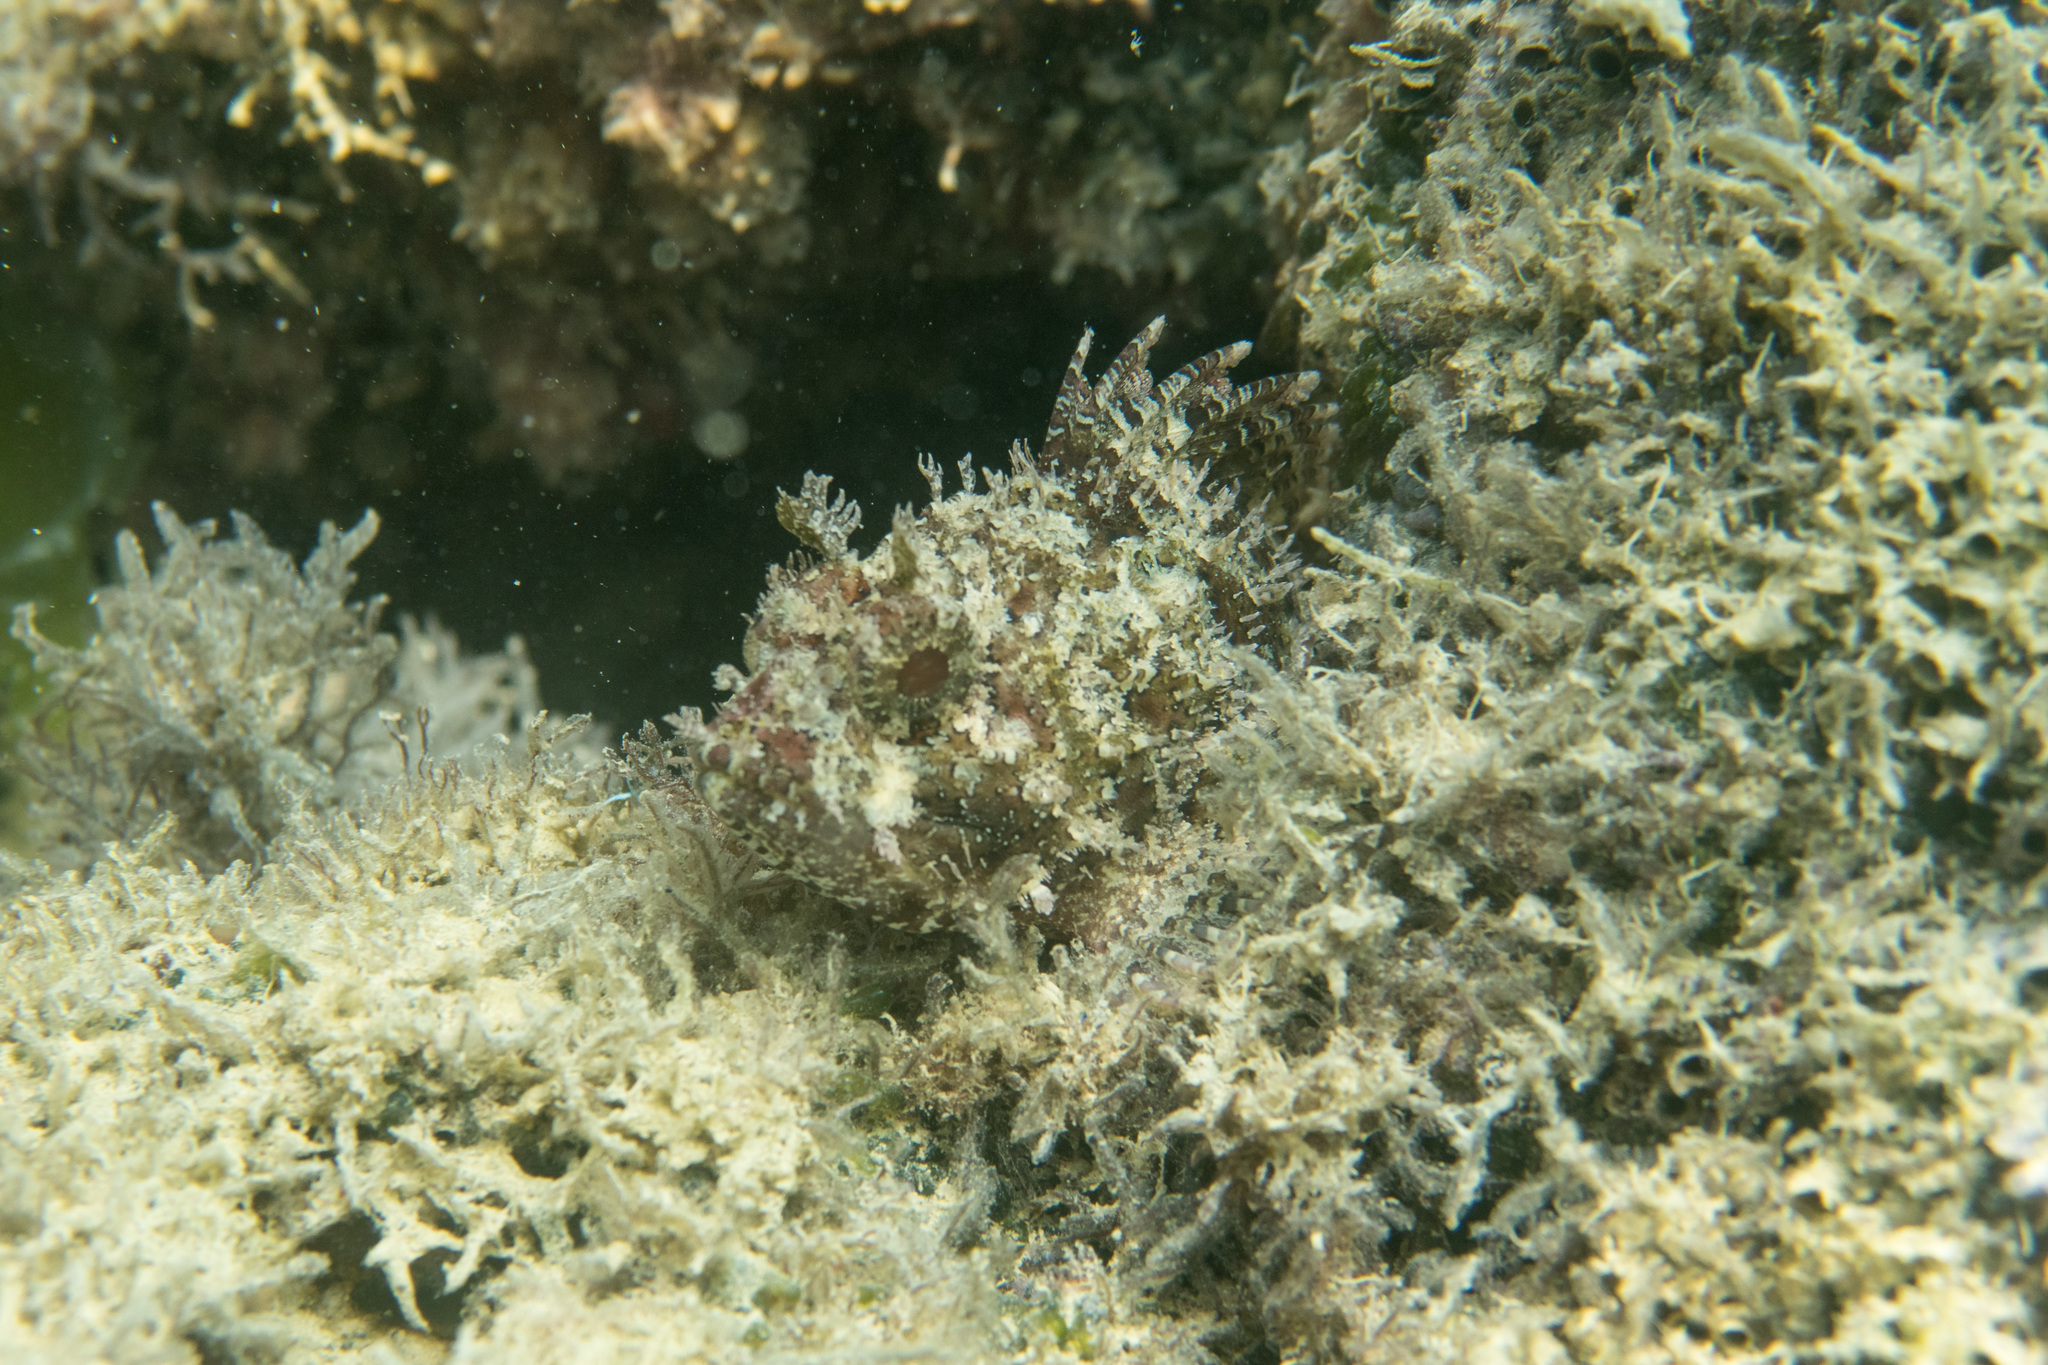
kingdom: Animalia
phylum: Chordata
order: Scorpaeniformes
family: Scorpaenidae
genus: Scorpaena
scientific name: Scorpaena porcus
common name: Black scorpionfish
